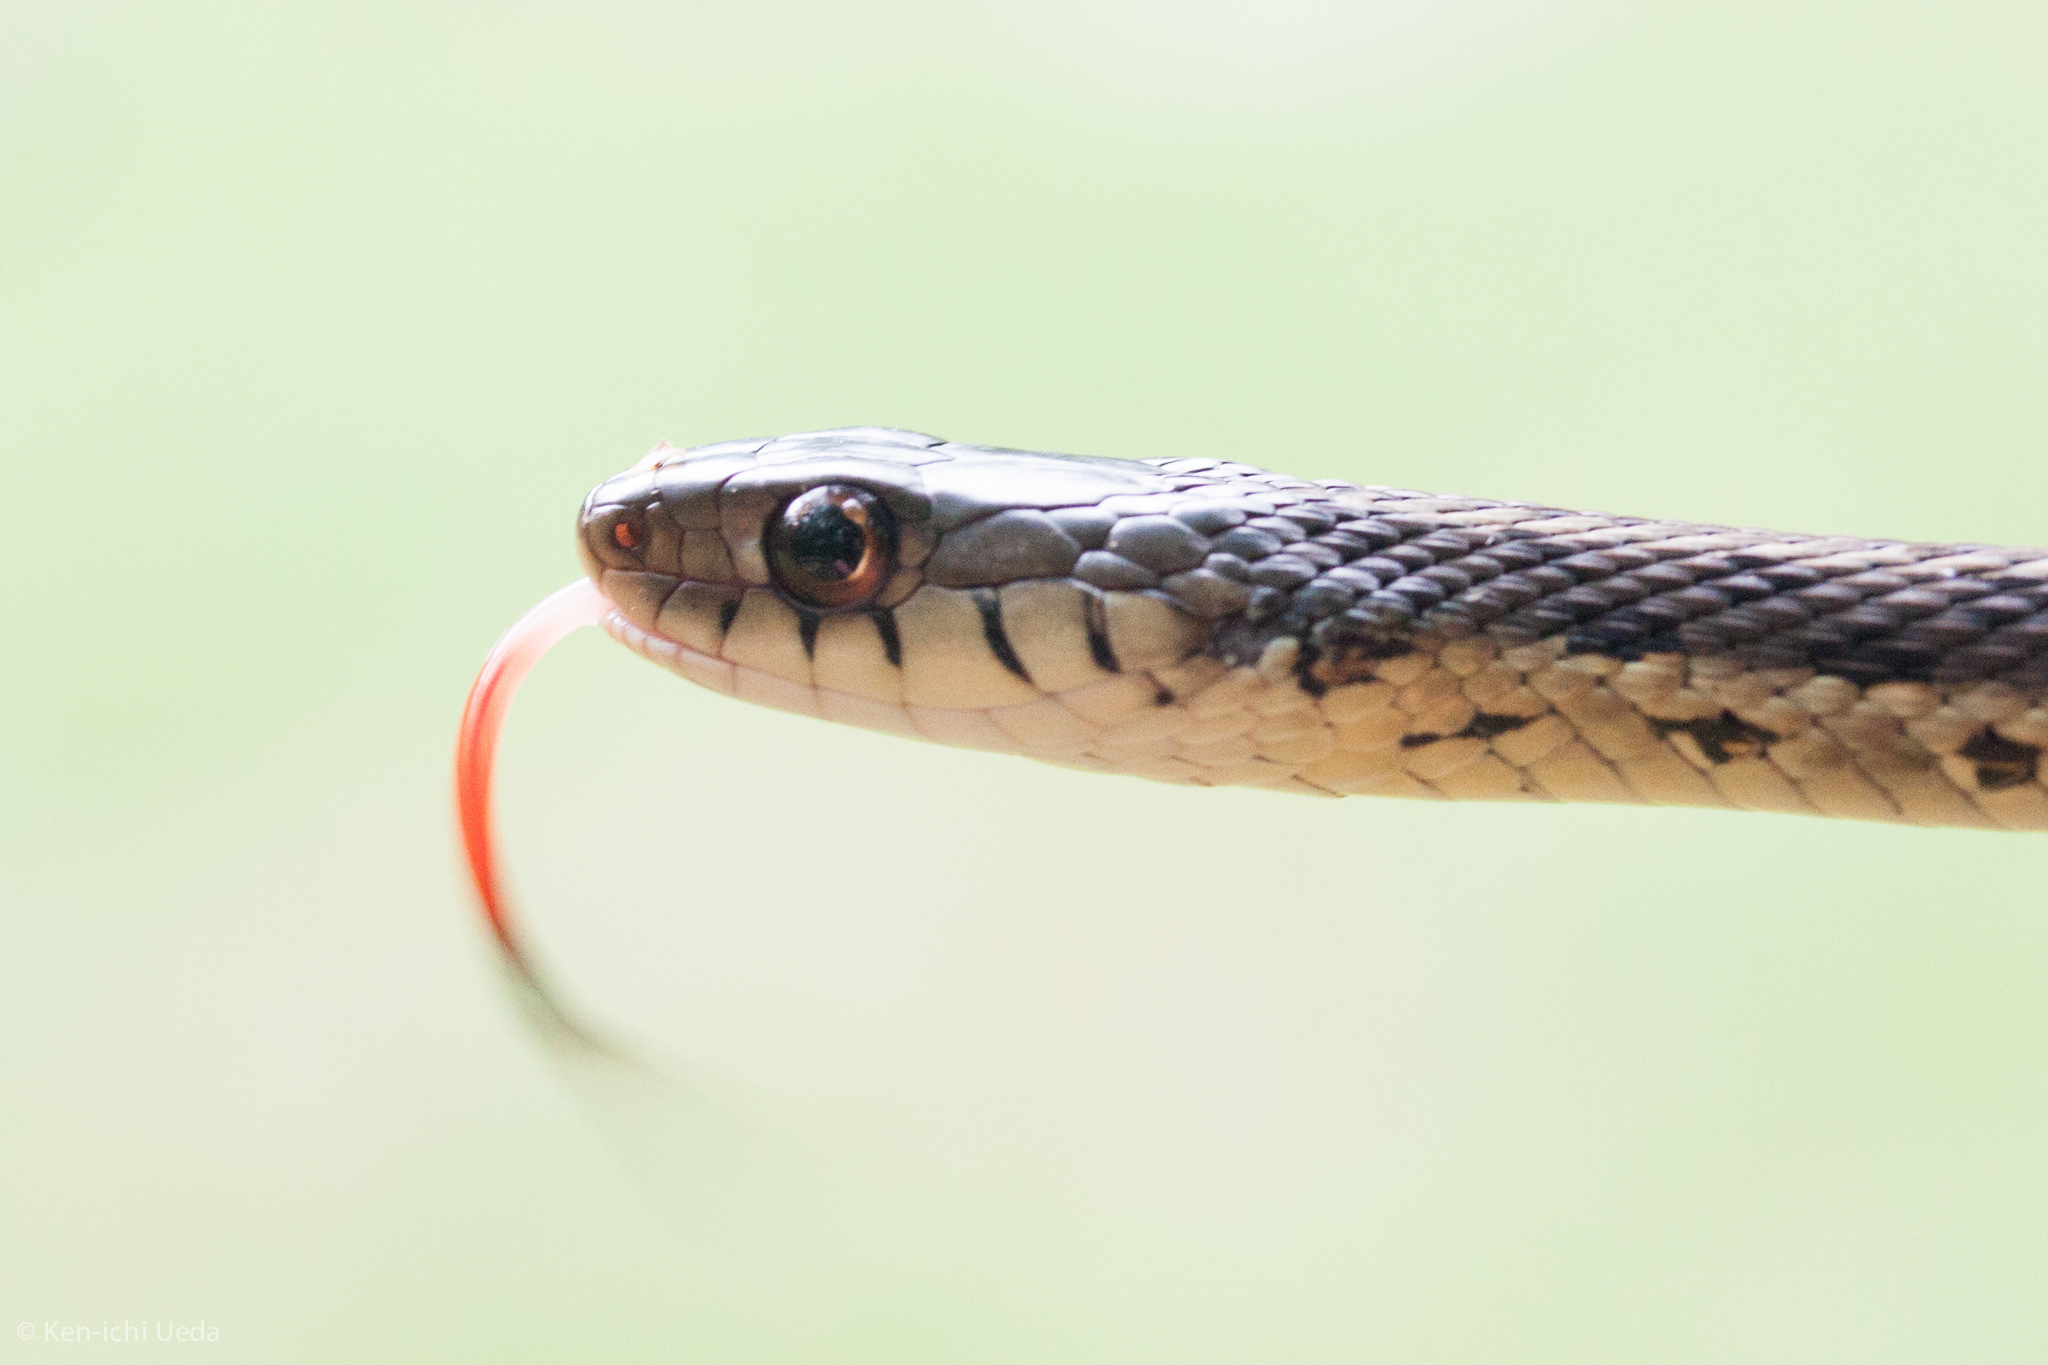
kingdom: Animalia
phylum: Chordata
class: Squamata
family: Colubridae
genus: Thamnophis
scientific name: Thamnophis sirtalis
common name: Common garter snake
